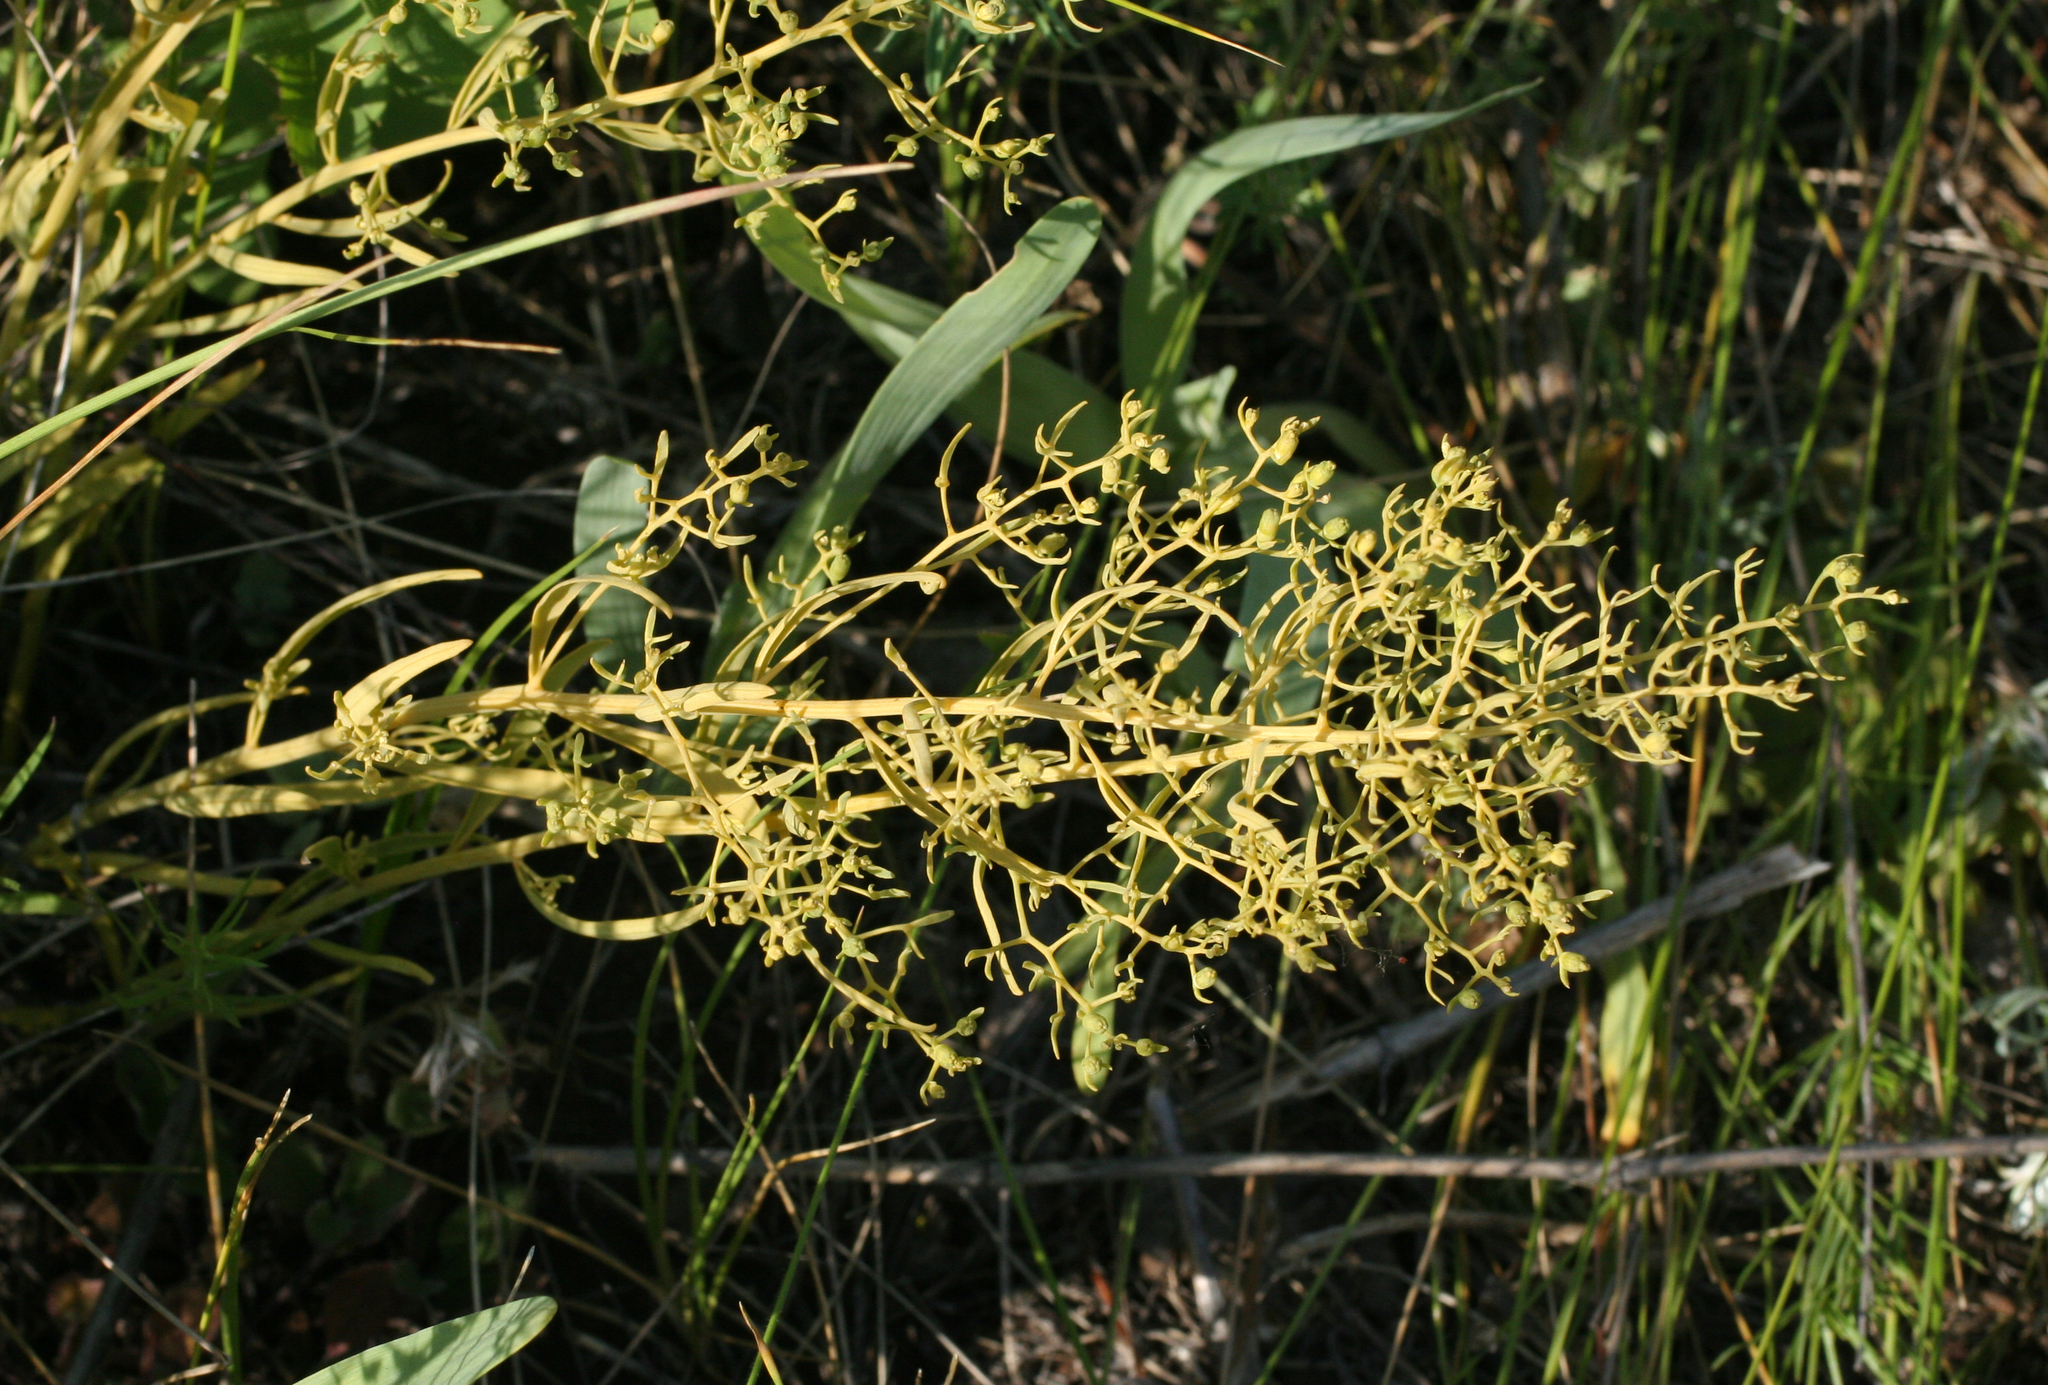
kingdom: Plantae
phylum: Tracheophyta
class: Magnoliopsida
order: Santalales
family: Thesiaceae
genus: Thesium
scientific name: Thesium refractum
